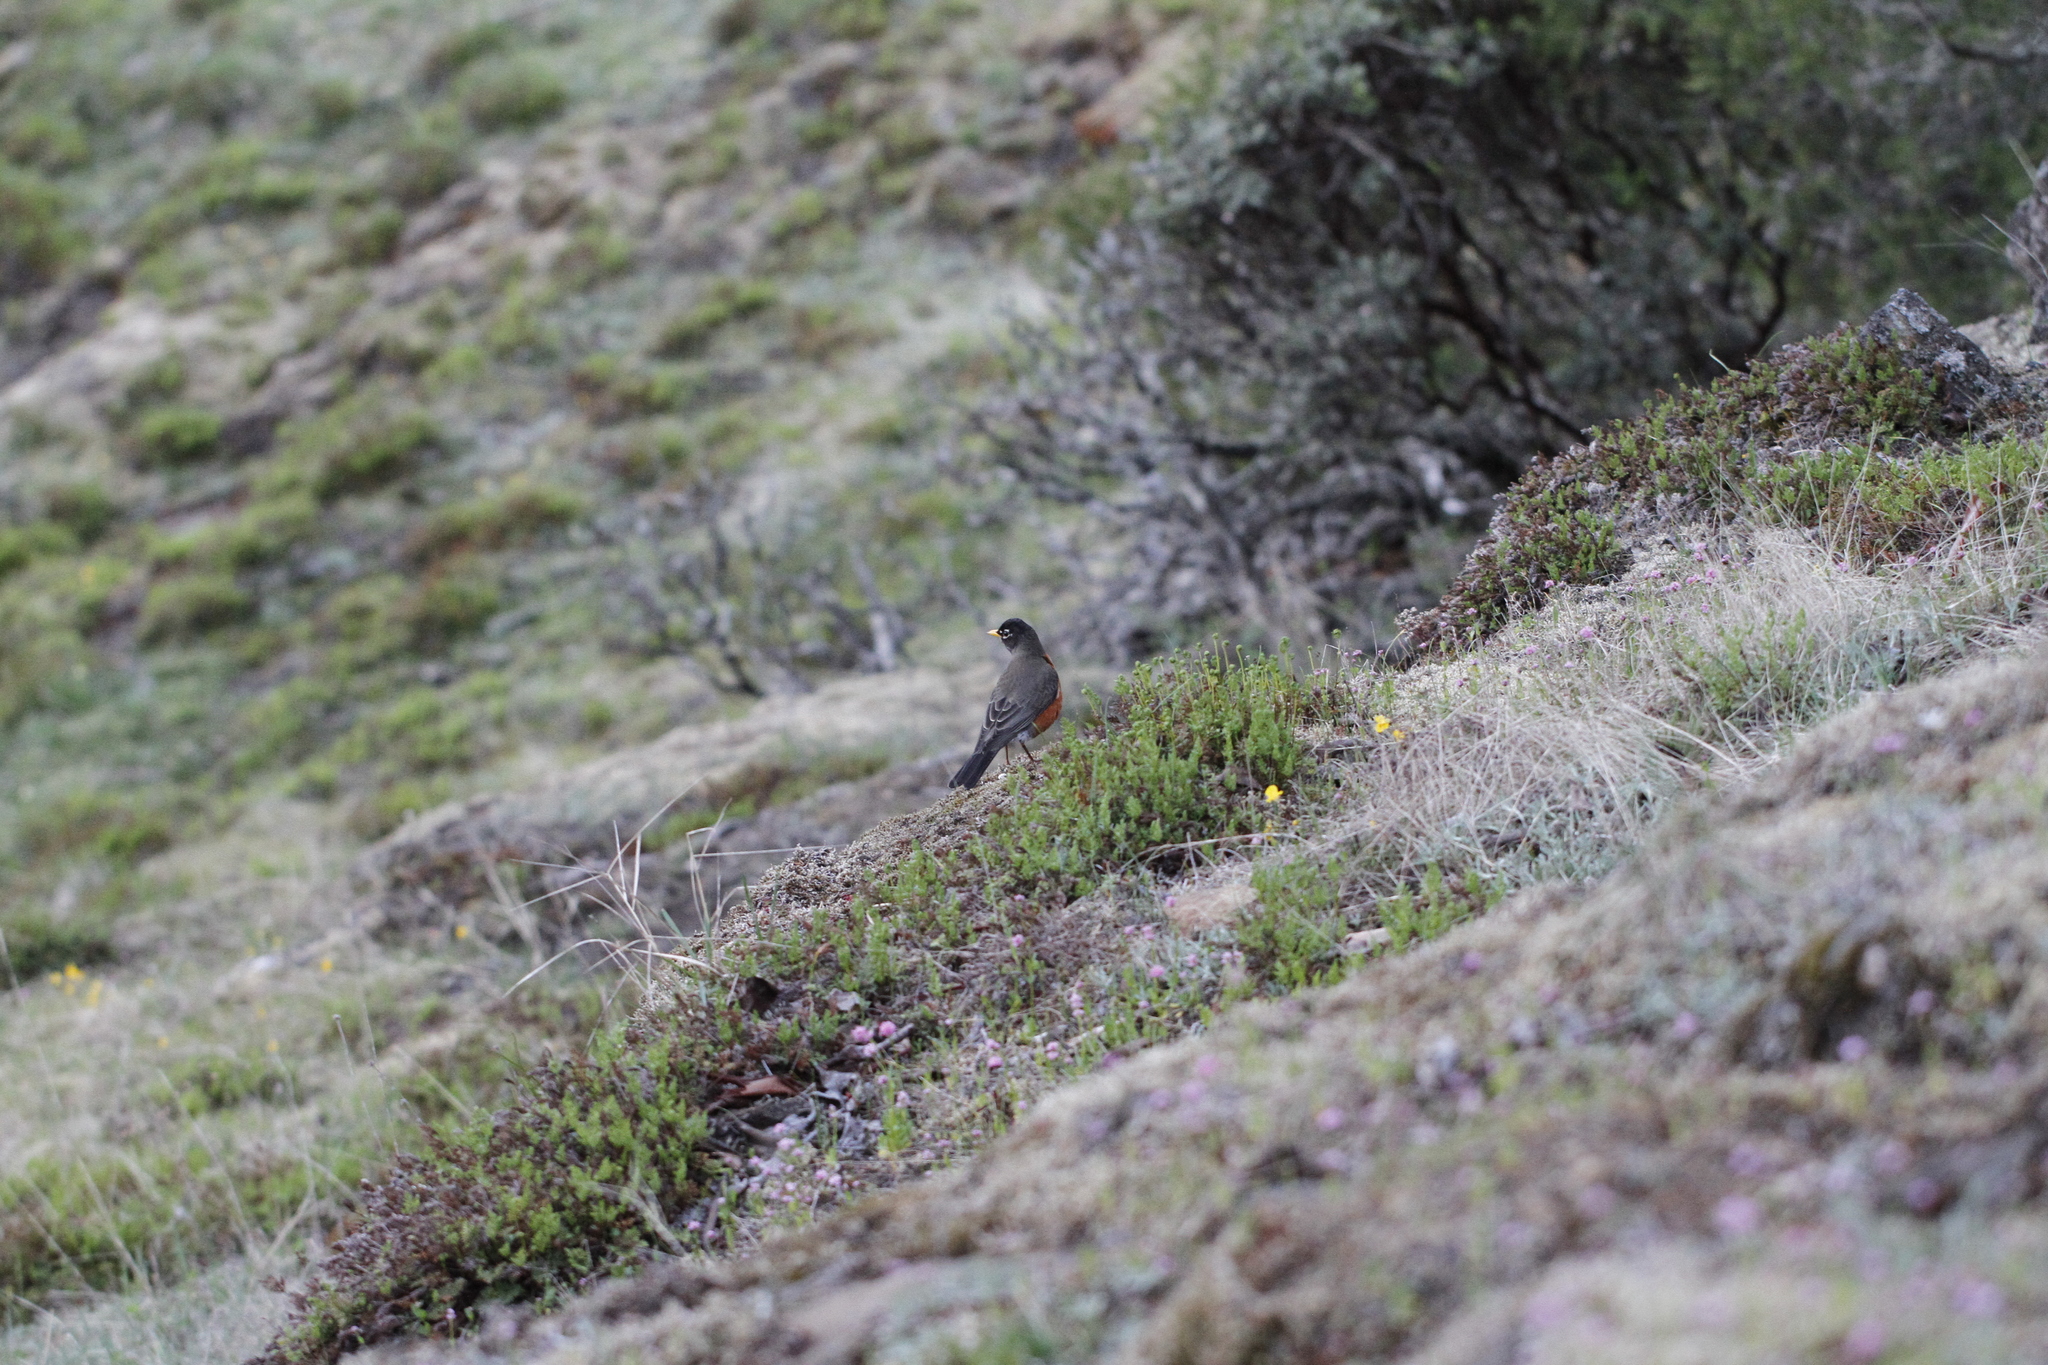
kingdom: Animalia
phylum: Chordata
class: Aves
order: Passeriformes
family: Turdidae
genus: Turdus
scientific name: Turdus migratorius
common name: American robin
